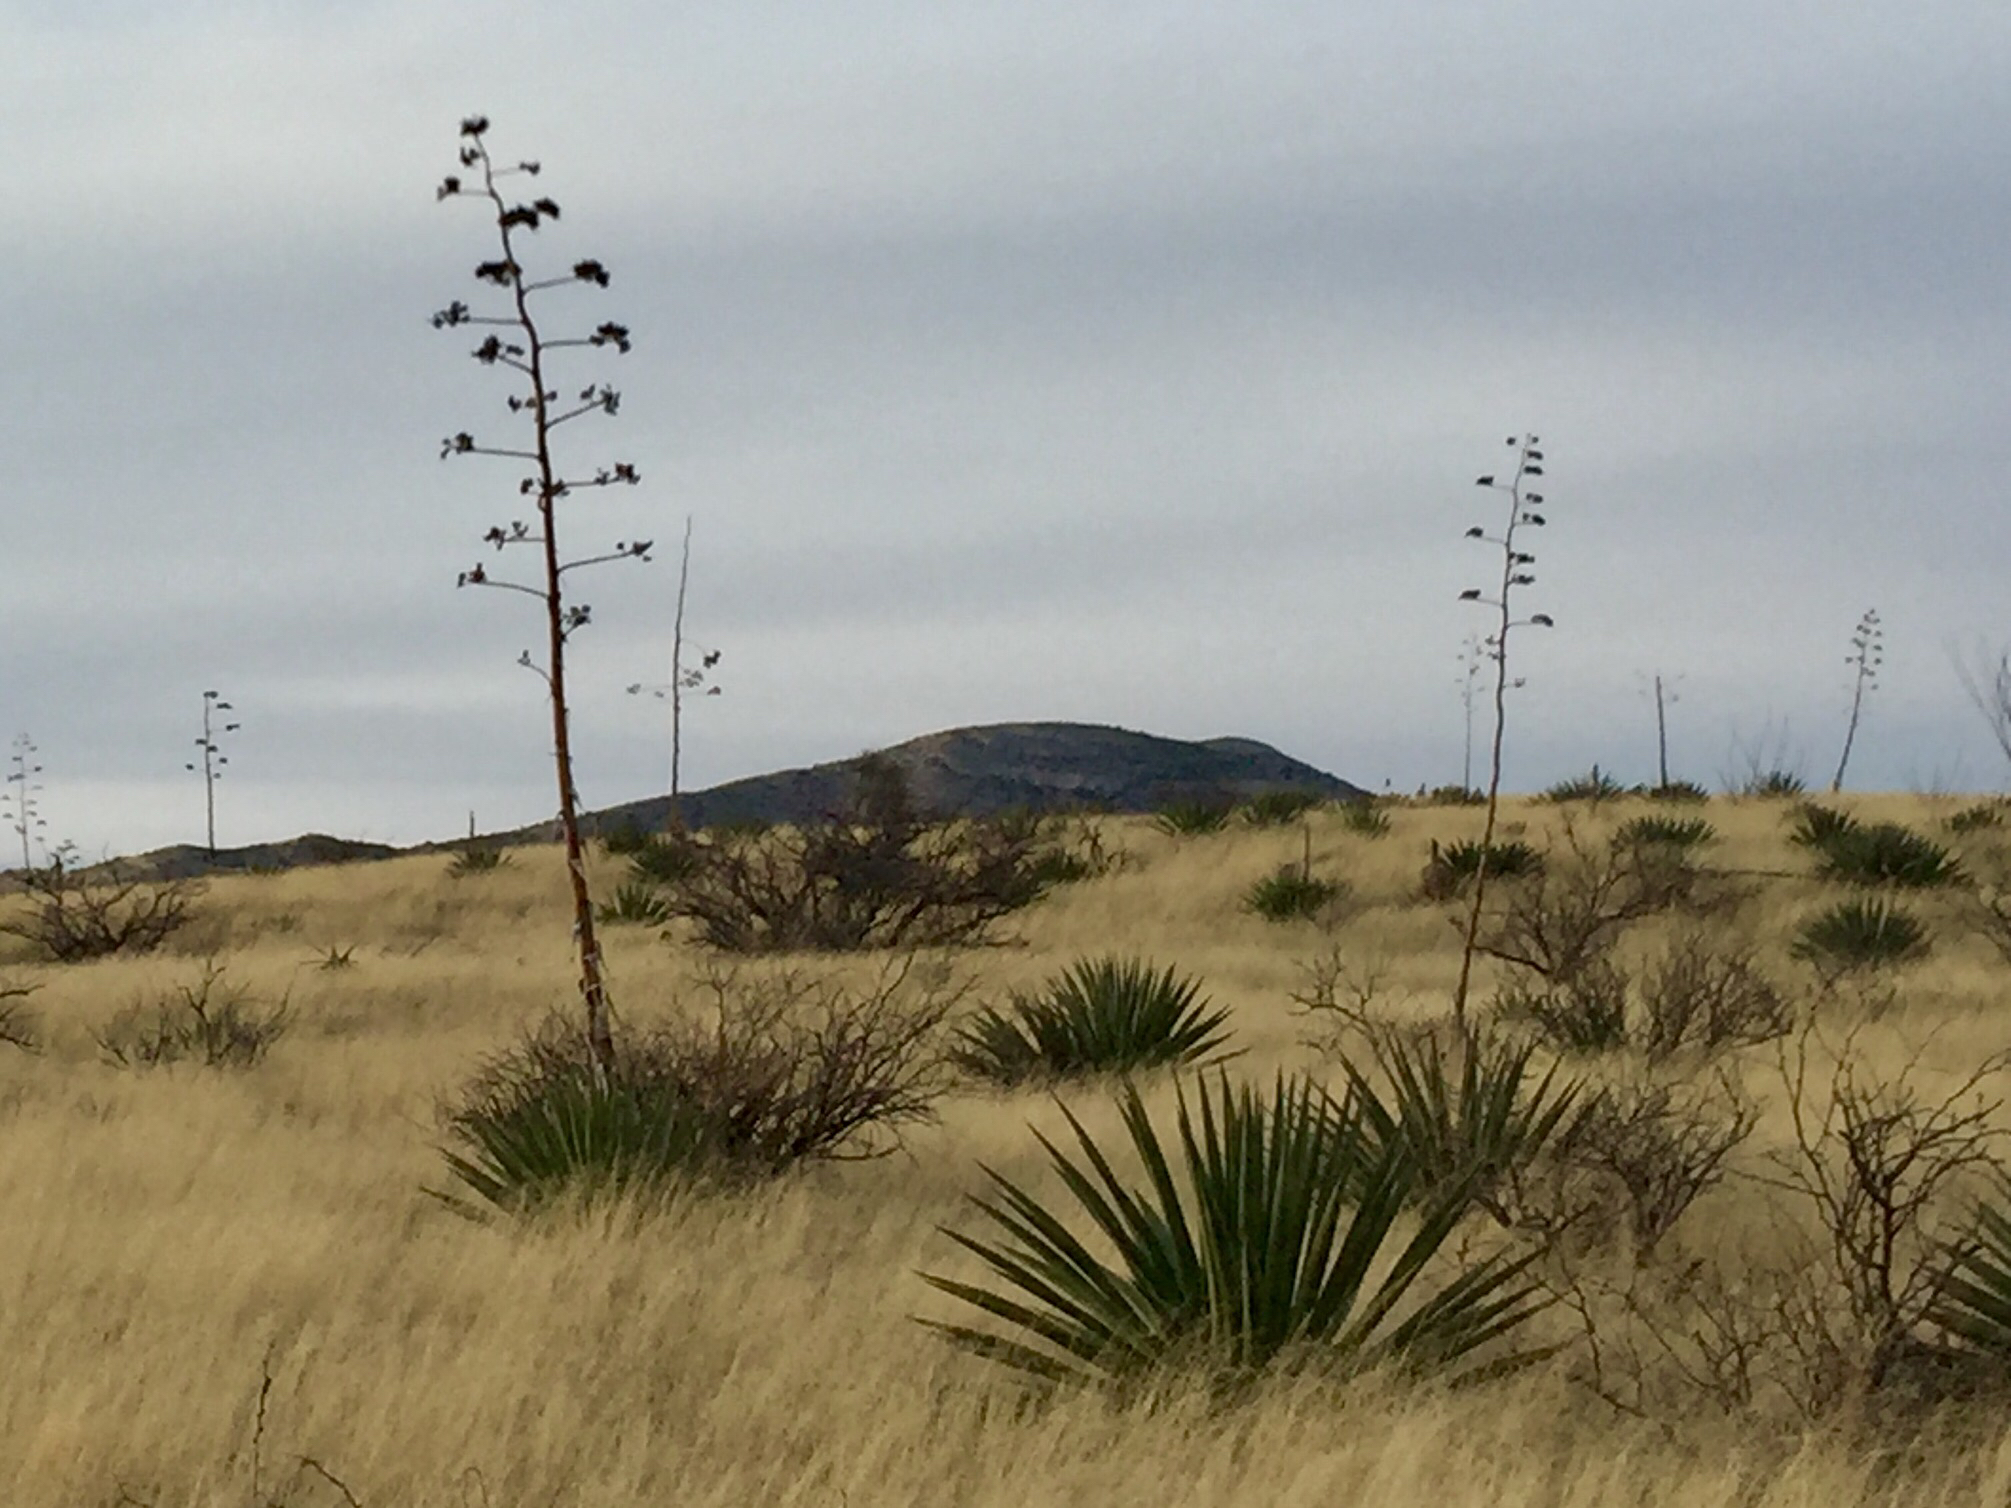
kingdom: Plantae
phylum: Tracheophyta
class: Liliopsida
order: Asparagales
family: Asparagaceae
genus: Agave
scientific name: Agave palmeri
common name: Palmer agave
